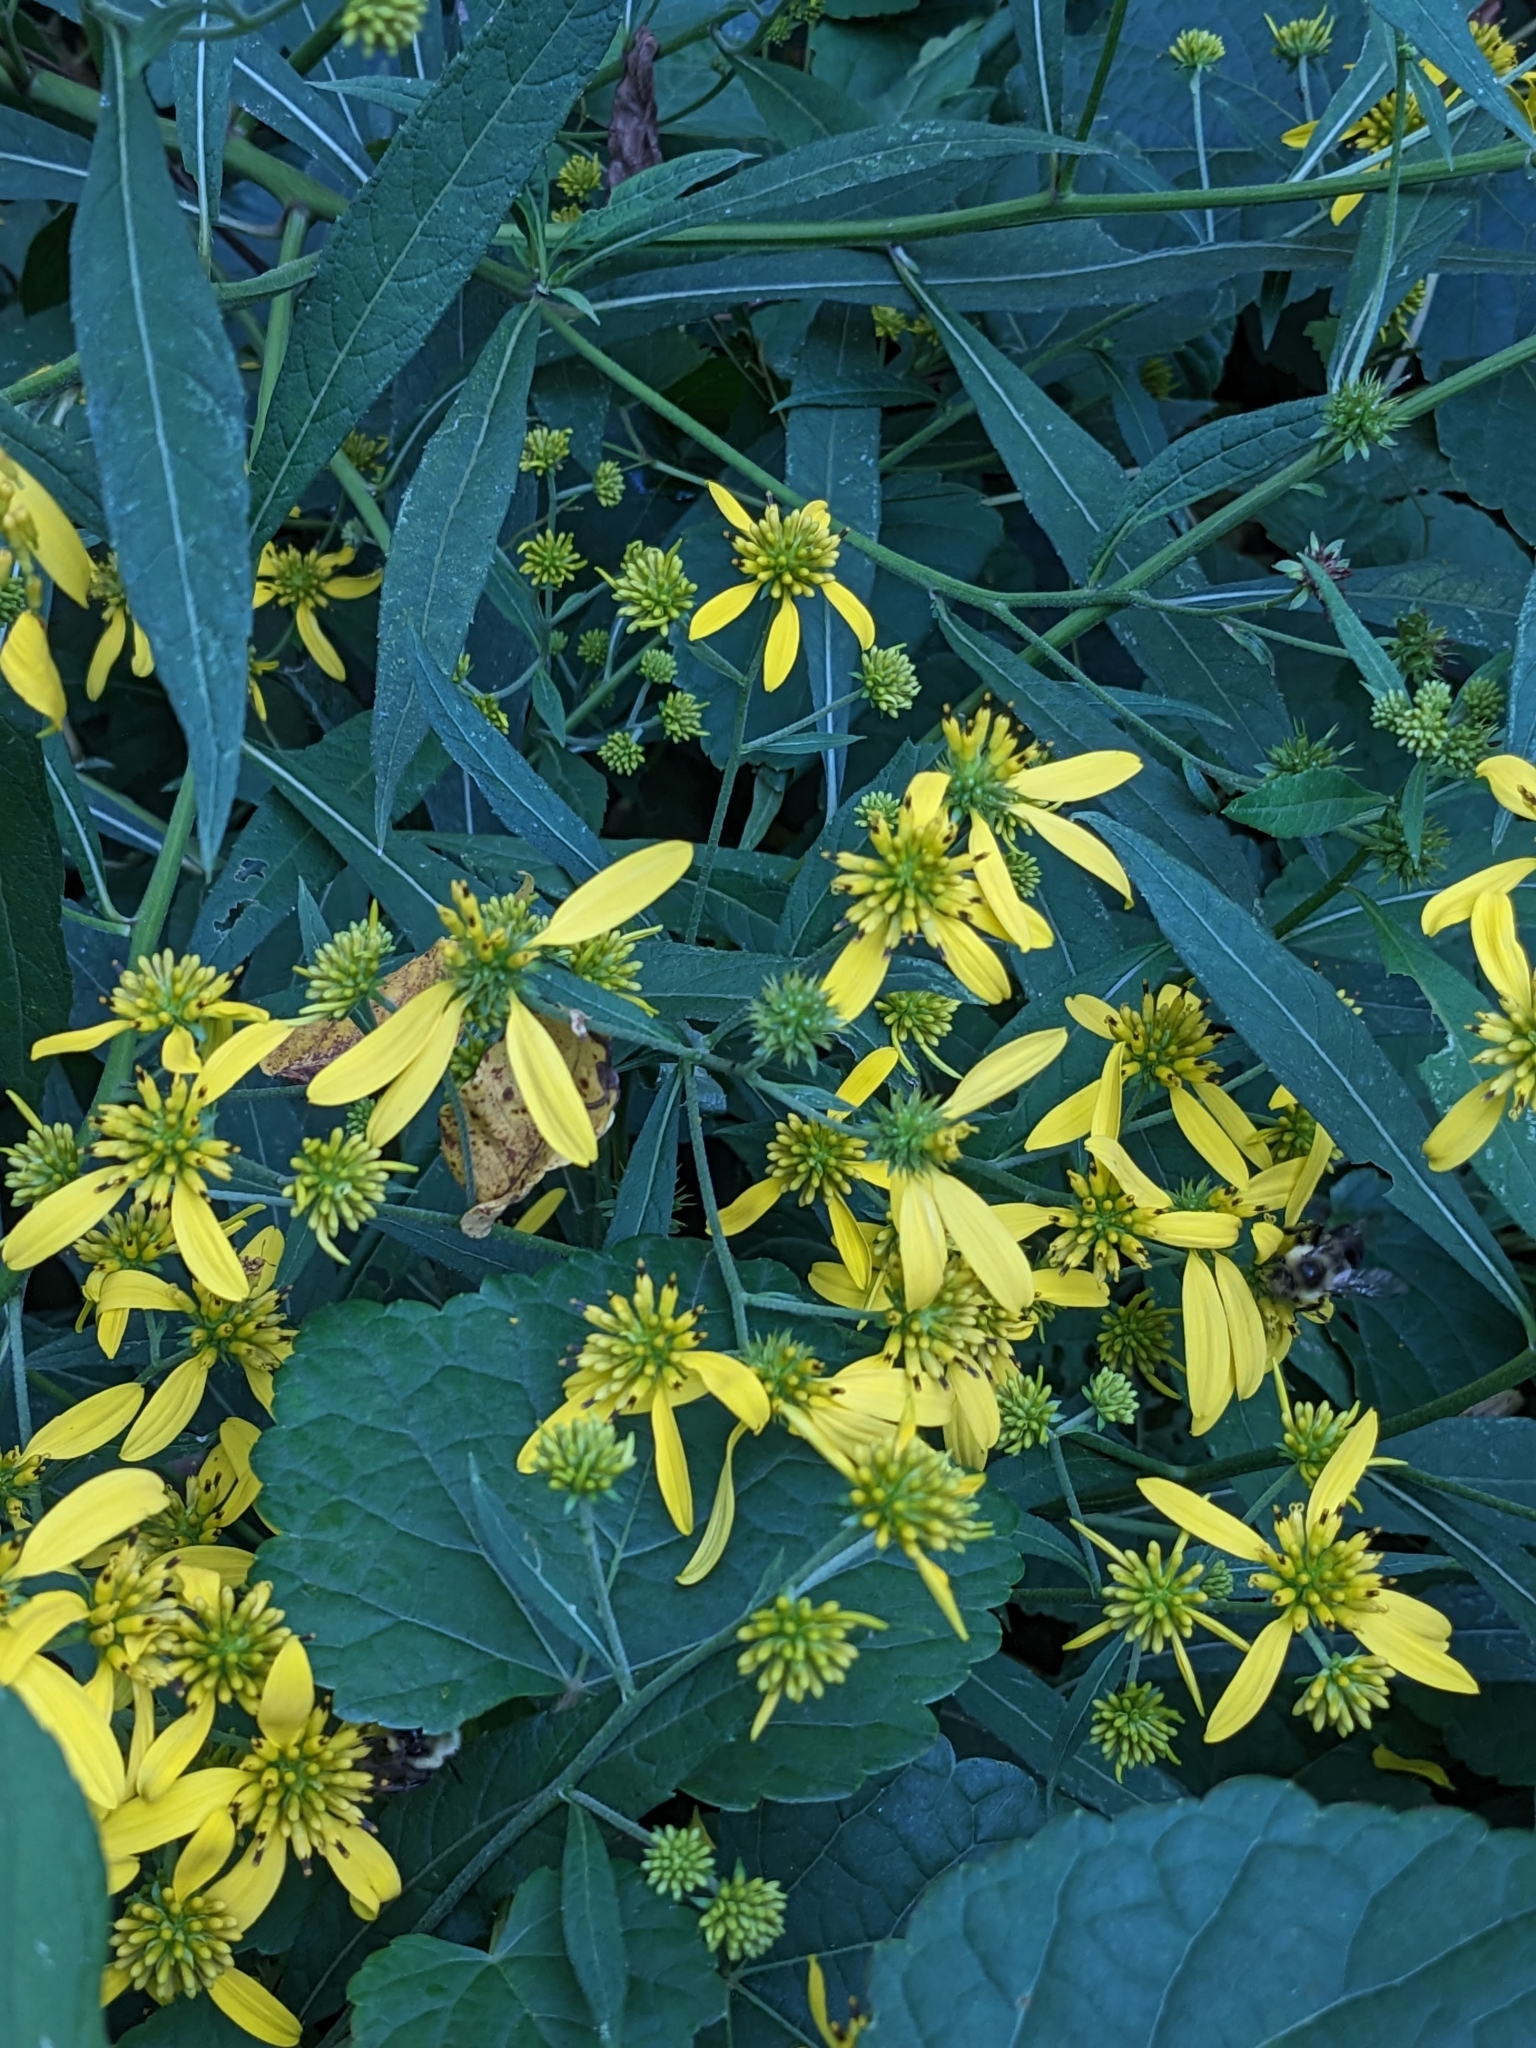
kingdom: Plantae
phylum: Tracheophyta
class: Magnoliopsida
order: Asterales
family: Asteraceae
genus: Verbesina
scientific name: Verbesina alternifolia
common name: Wingstem
